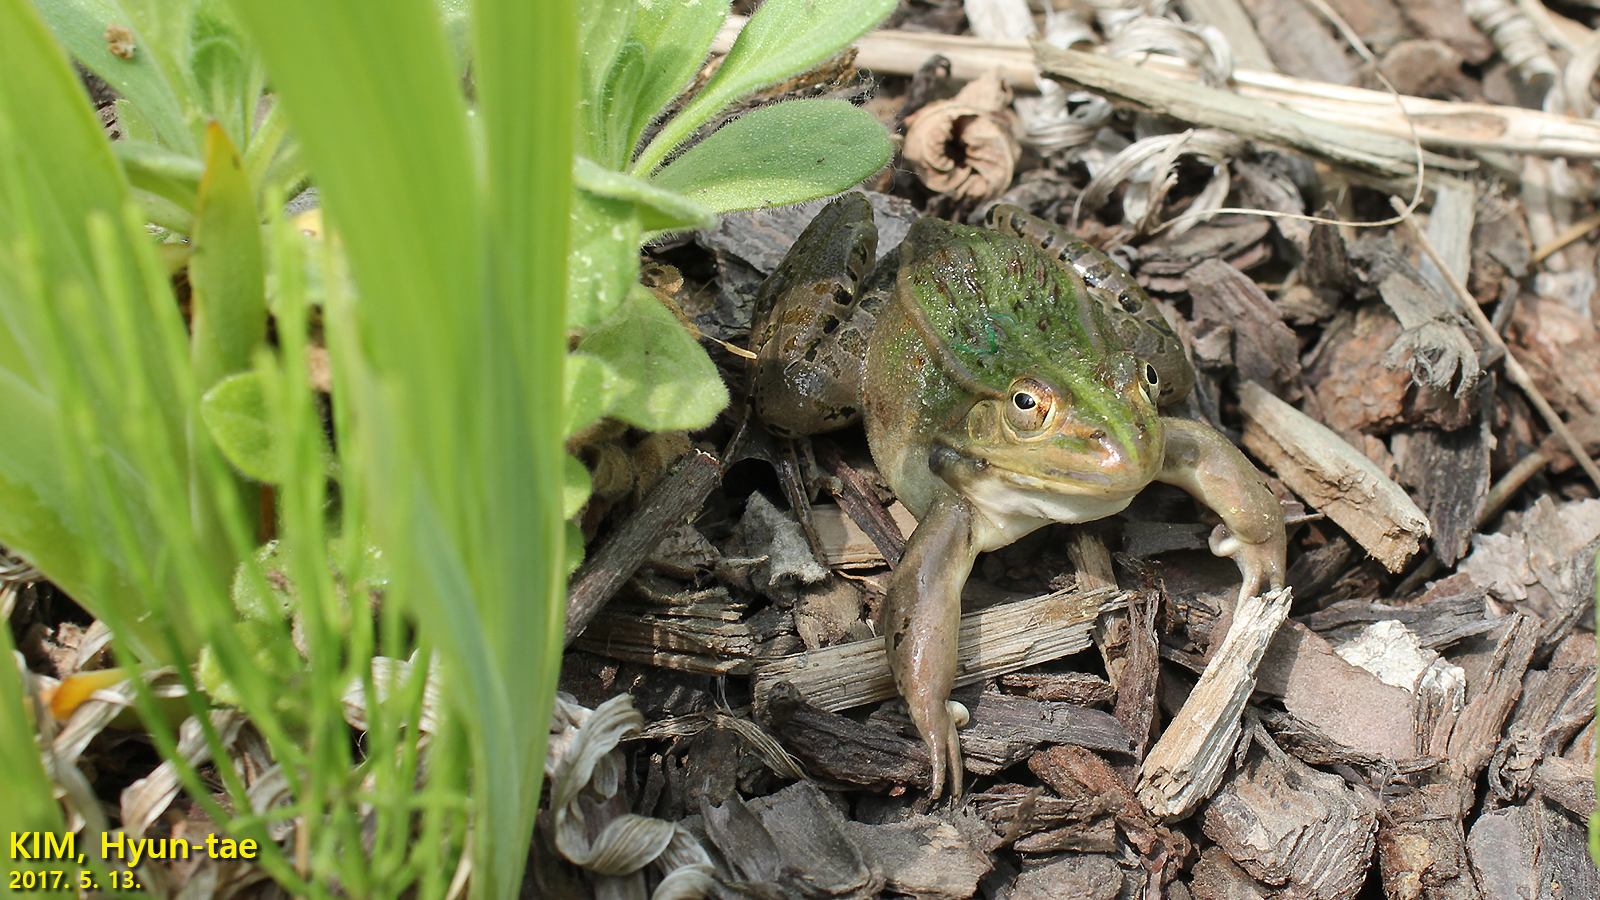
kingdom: Animalia
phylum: Chordata
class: Amphibia
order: Anura
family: Ranidae
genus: Pelophylax
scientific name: Pelophylax nigromaculatus
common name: Black-spotted pond frog
